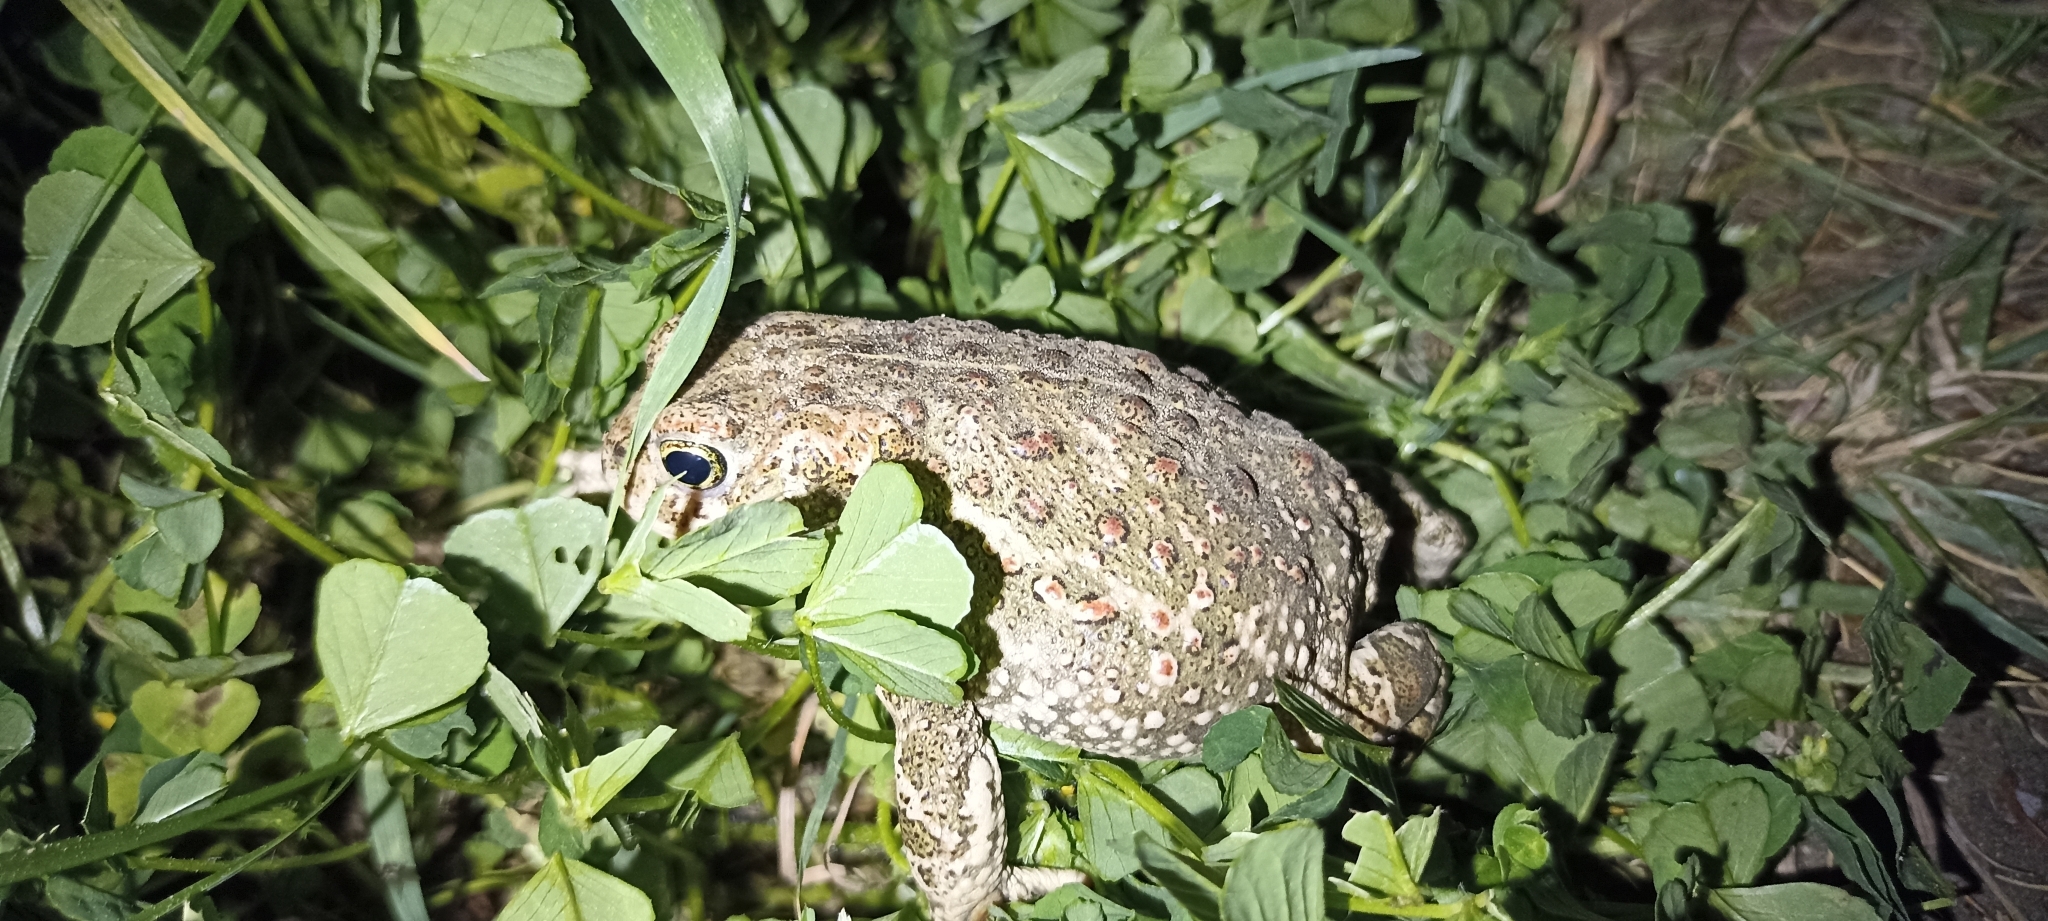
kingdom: Animalia
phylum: Chordata
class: Amphibia
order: Anura
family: Bufonidae
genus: Epidalea
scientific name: Epidalea calamita
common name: Natterjack toad
